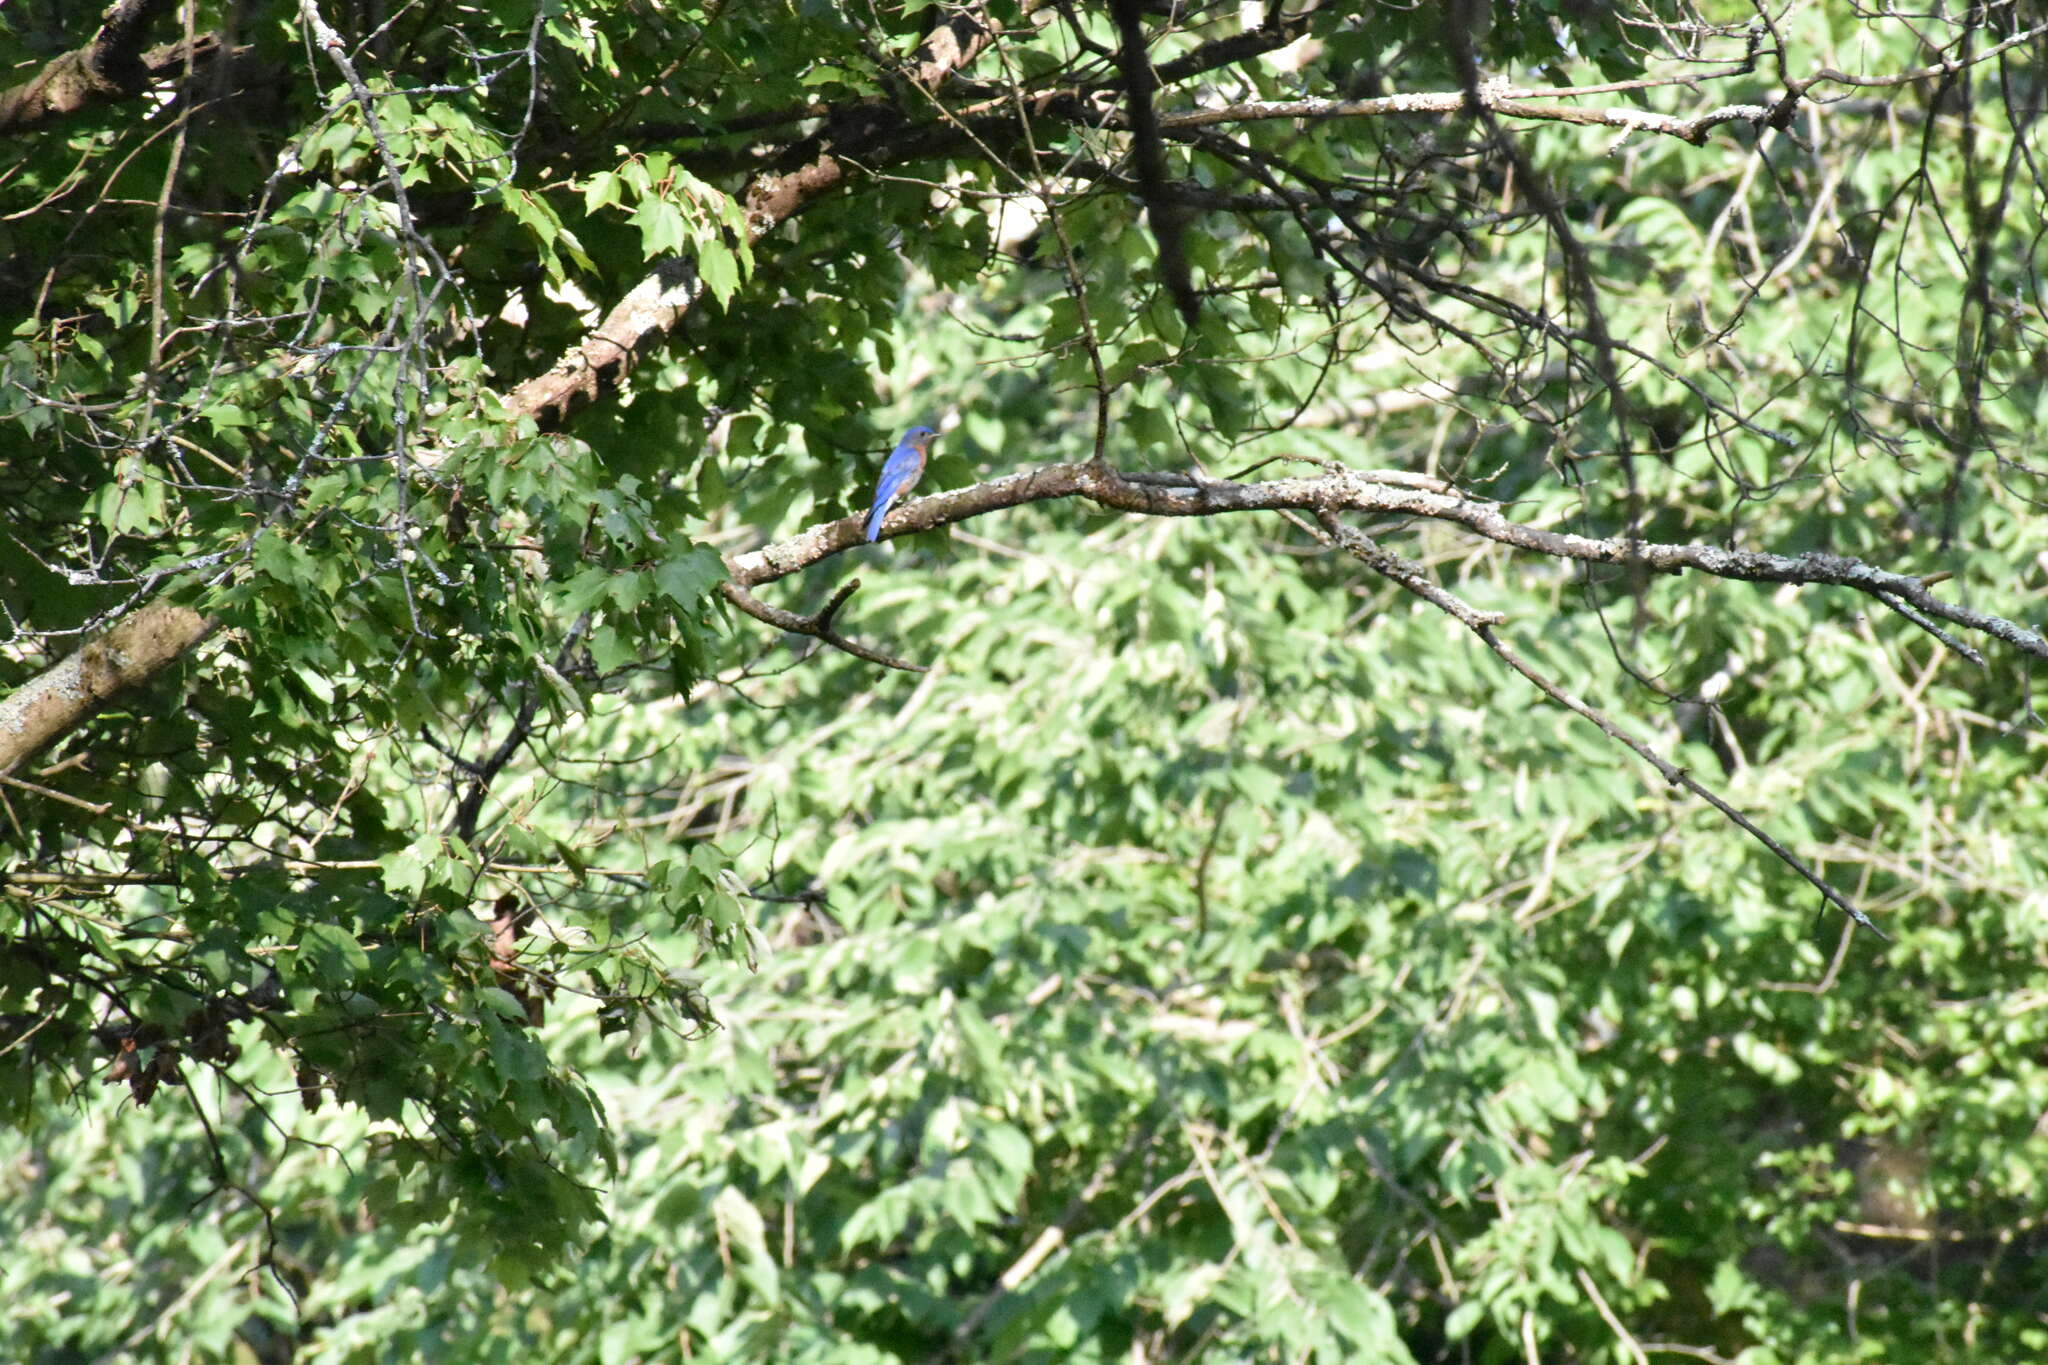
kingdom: Animalia
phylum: Chordata
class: Aves
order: Passeriformes
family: Turdidae
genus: Sialia
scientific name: Sialia sialis
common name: Eastern bluebird
